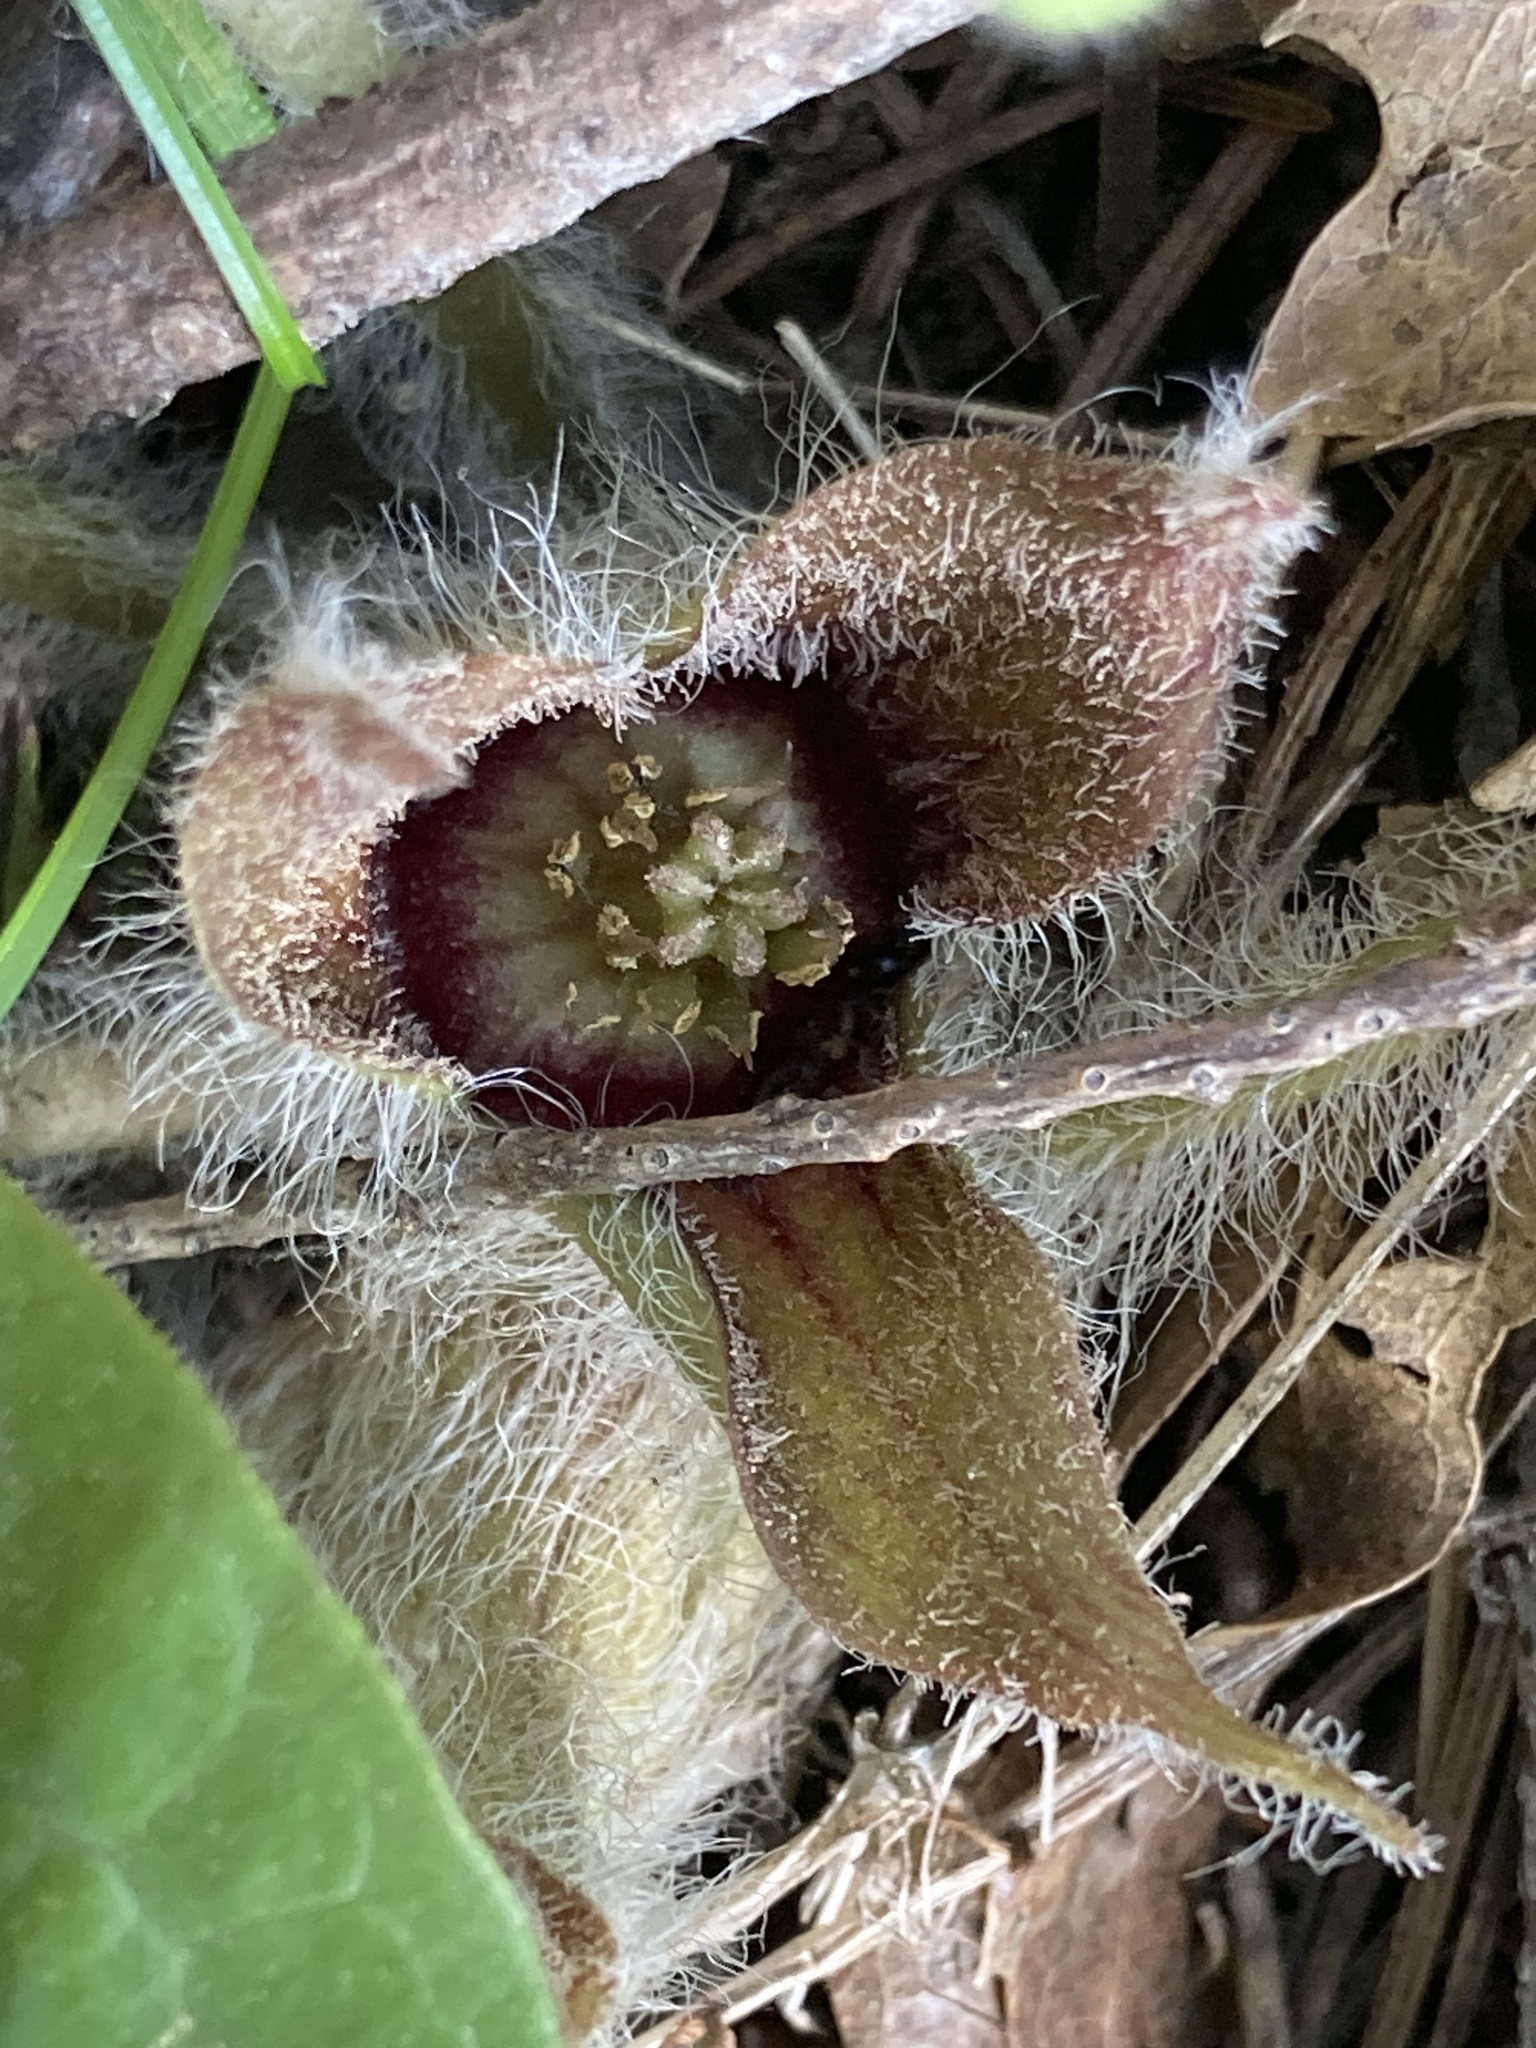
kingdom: Plantae
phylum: Tracheophyta
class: Magnoliopsida
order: Piperales
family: Aristolochiaceae
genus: Asarum
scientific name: Asarum hartwegii
